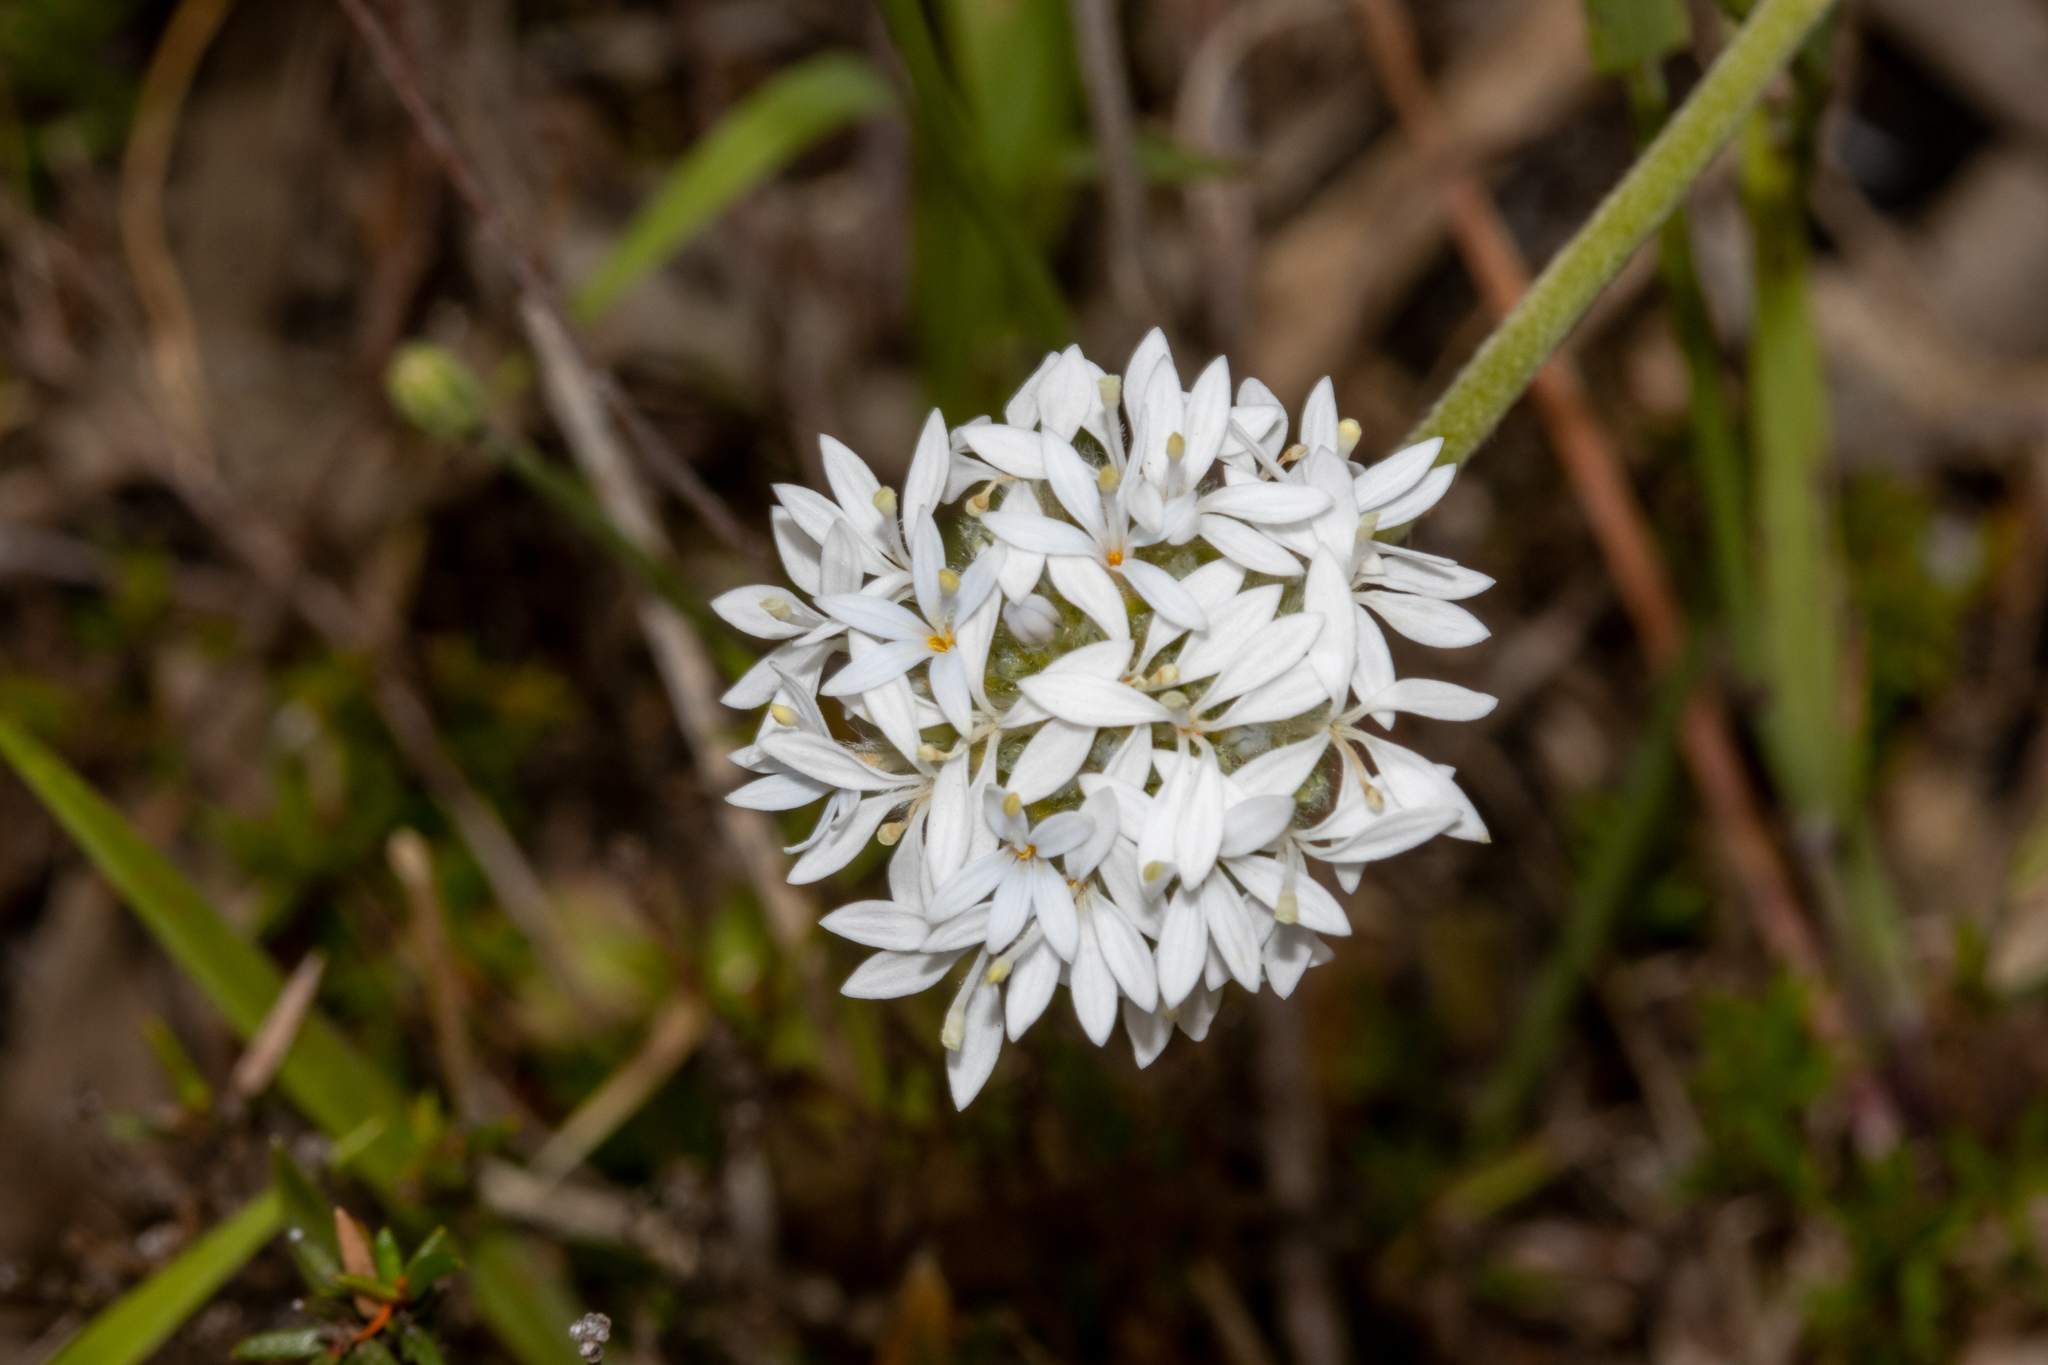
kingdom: Plantae
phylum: Tracheophyta
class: Magnoliopsida
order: Asterales
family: Goodeniaceae
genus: Brunonia
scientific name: Brunonia australis
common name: Blue pincushion
